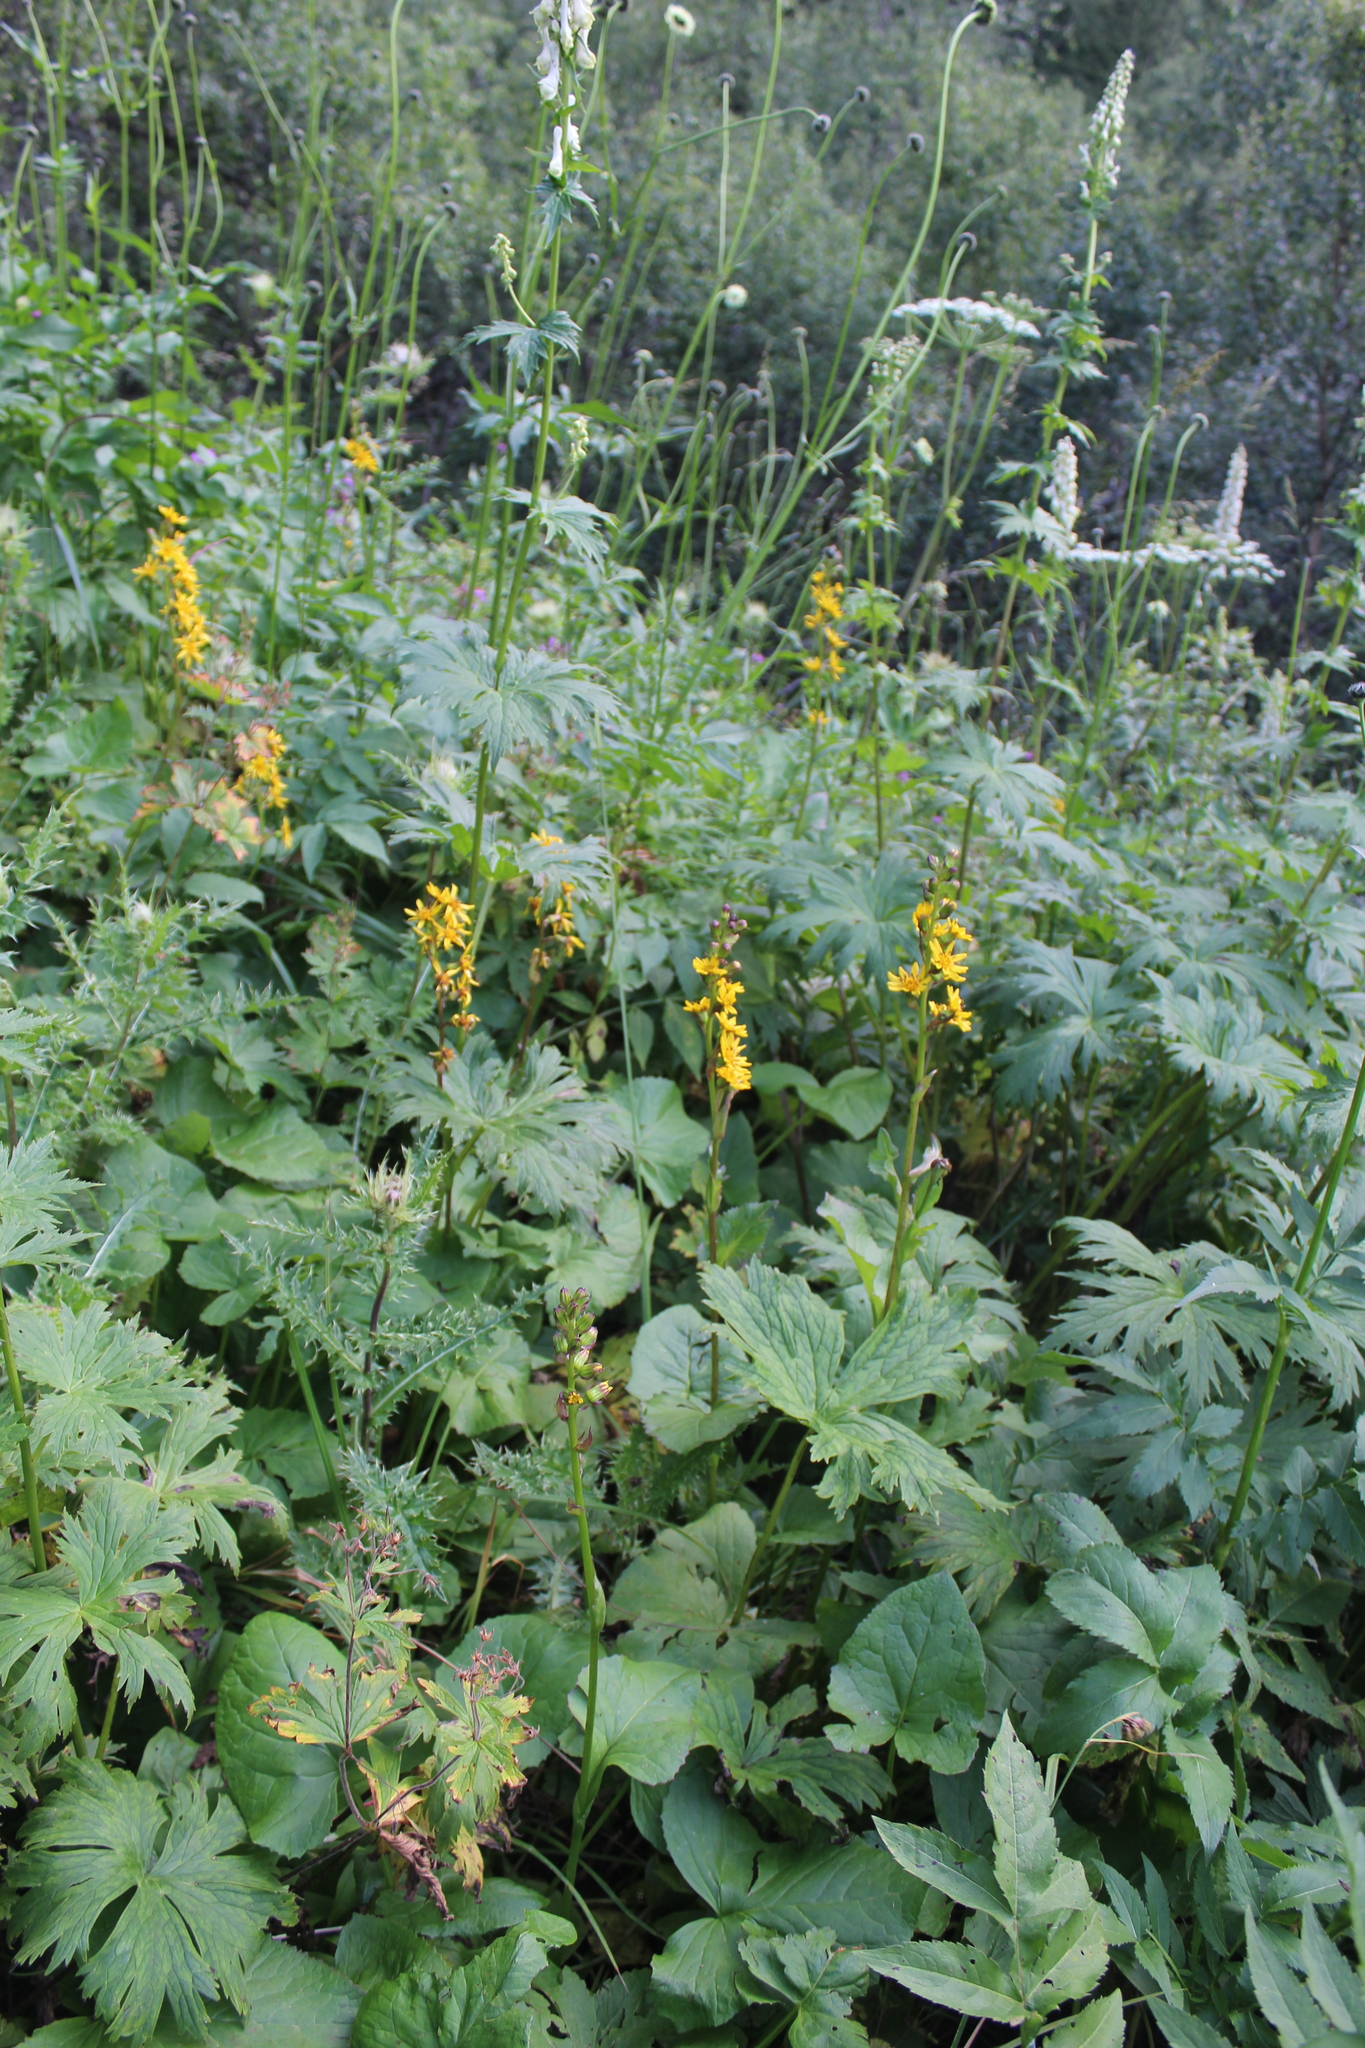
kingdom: Plantae
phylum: Tracheophyta
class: Magnoliopsida
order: Asterales
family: Asteraceae
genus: Ligularia
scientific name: Ligularia subsagittata
